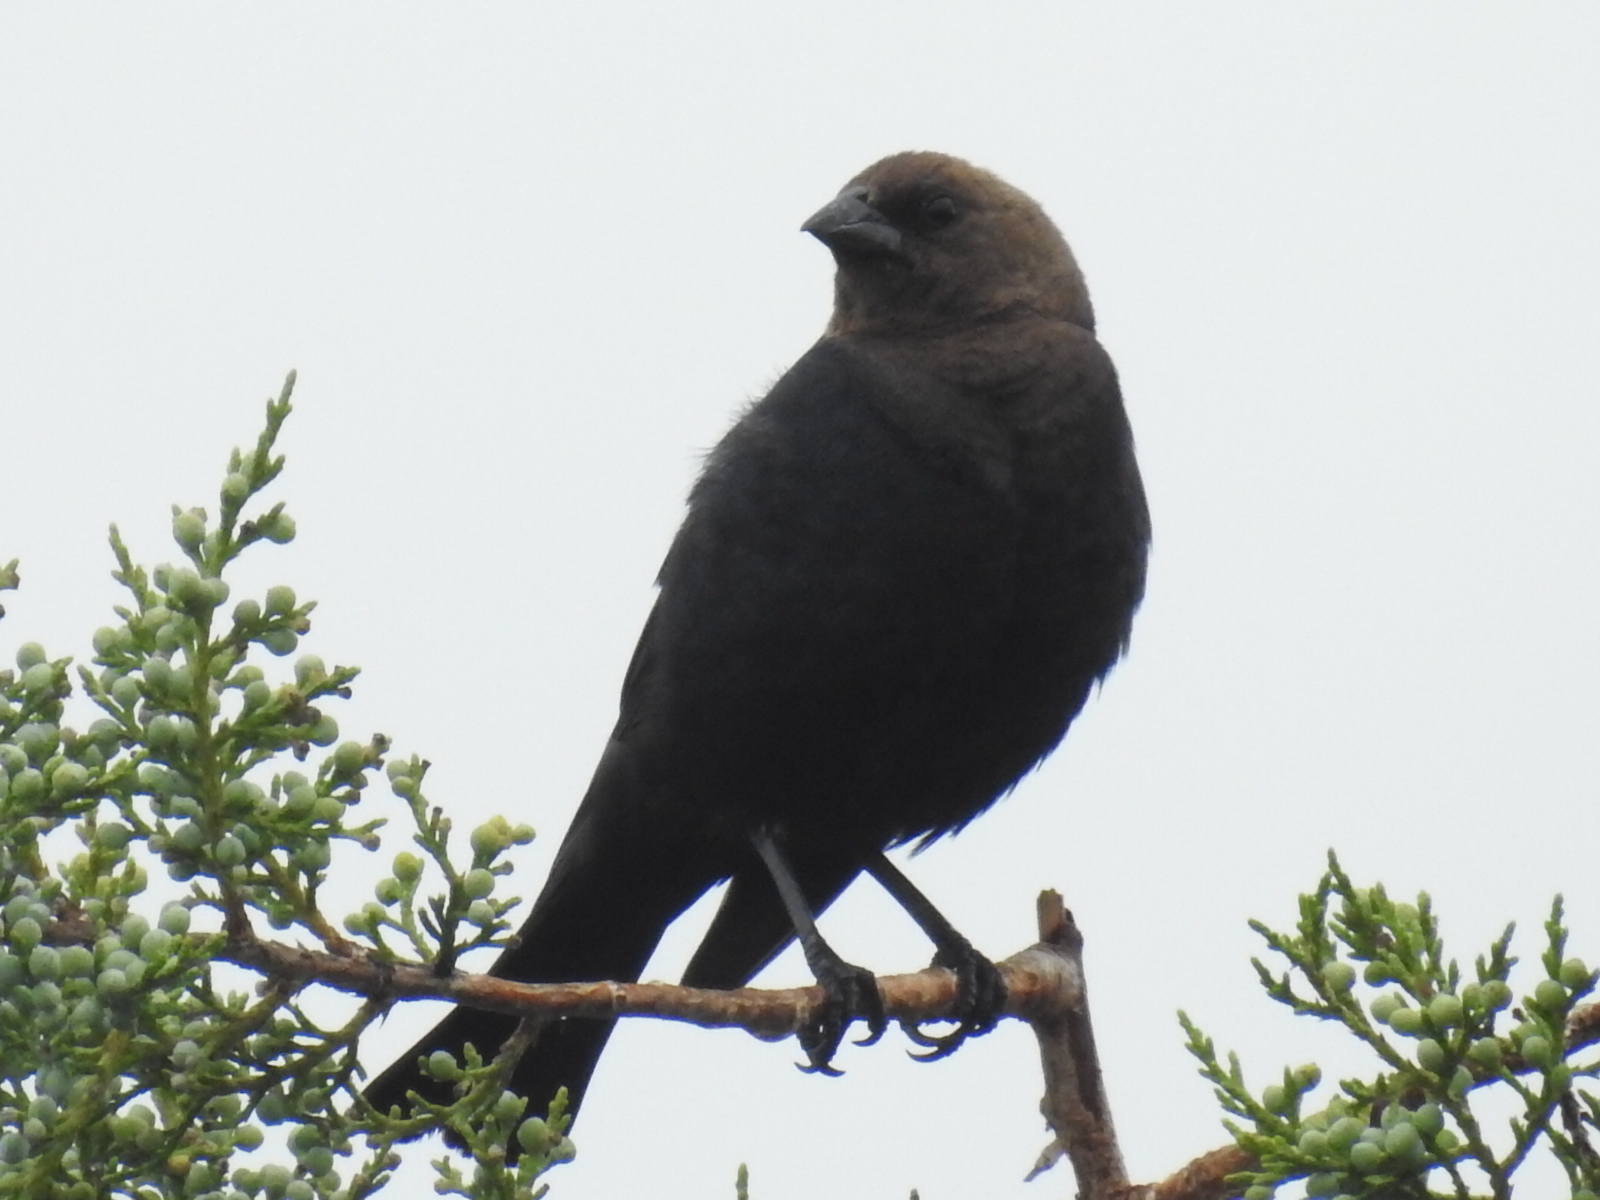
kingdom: Animalia
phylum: Chordata
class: Aves
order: Passeriformes
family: Icteridae
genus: Molothrus
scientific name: Molothrus ater
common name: Brown-headed cowbird
